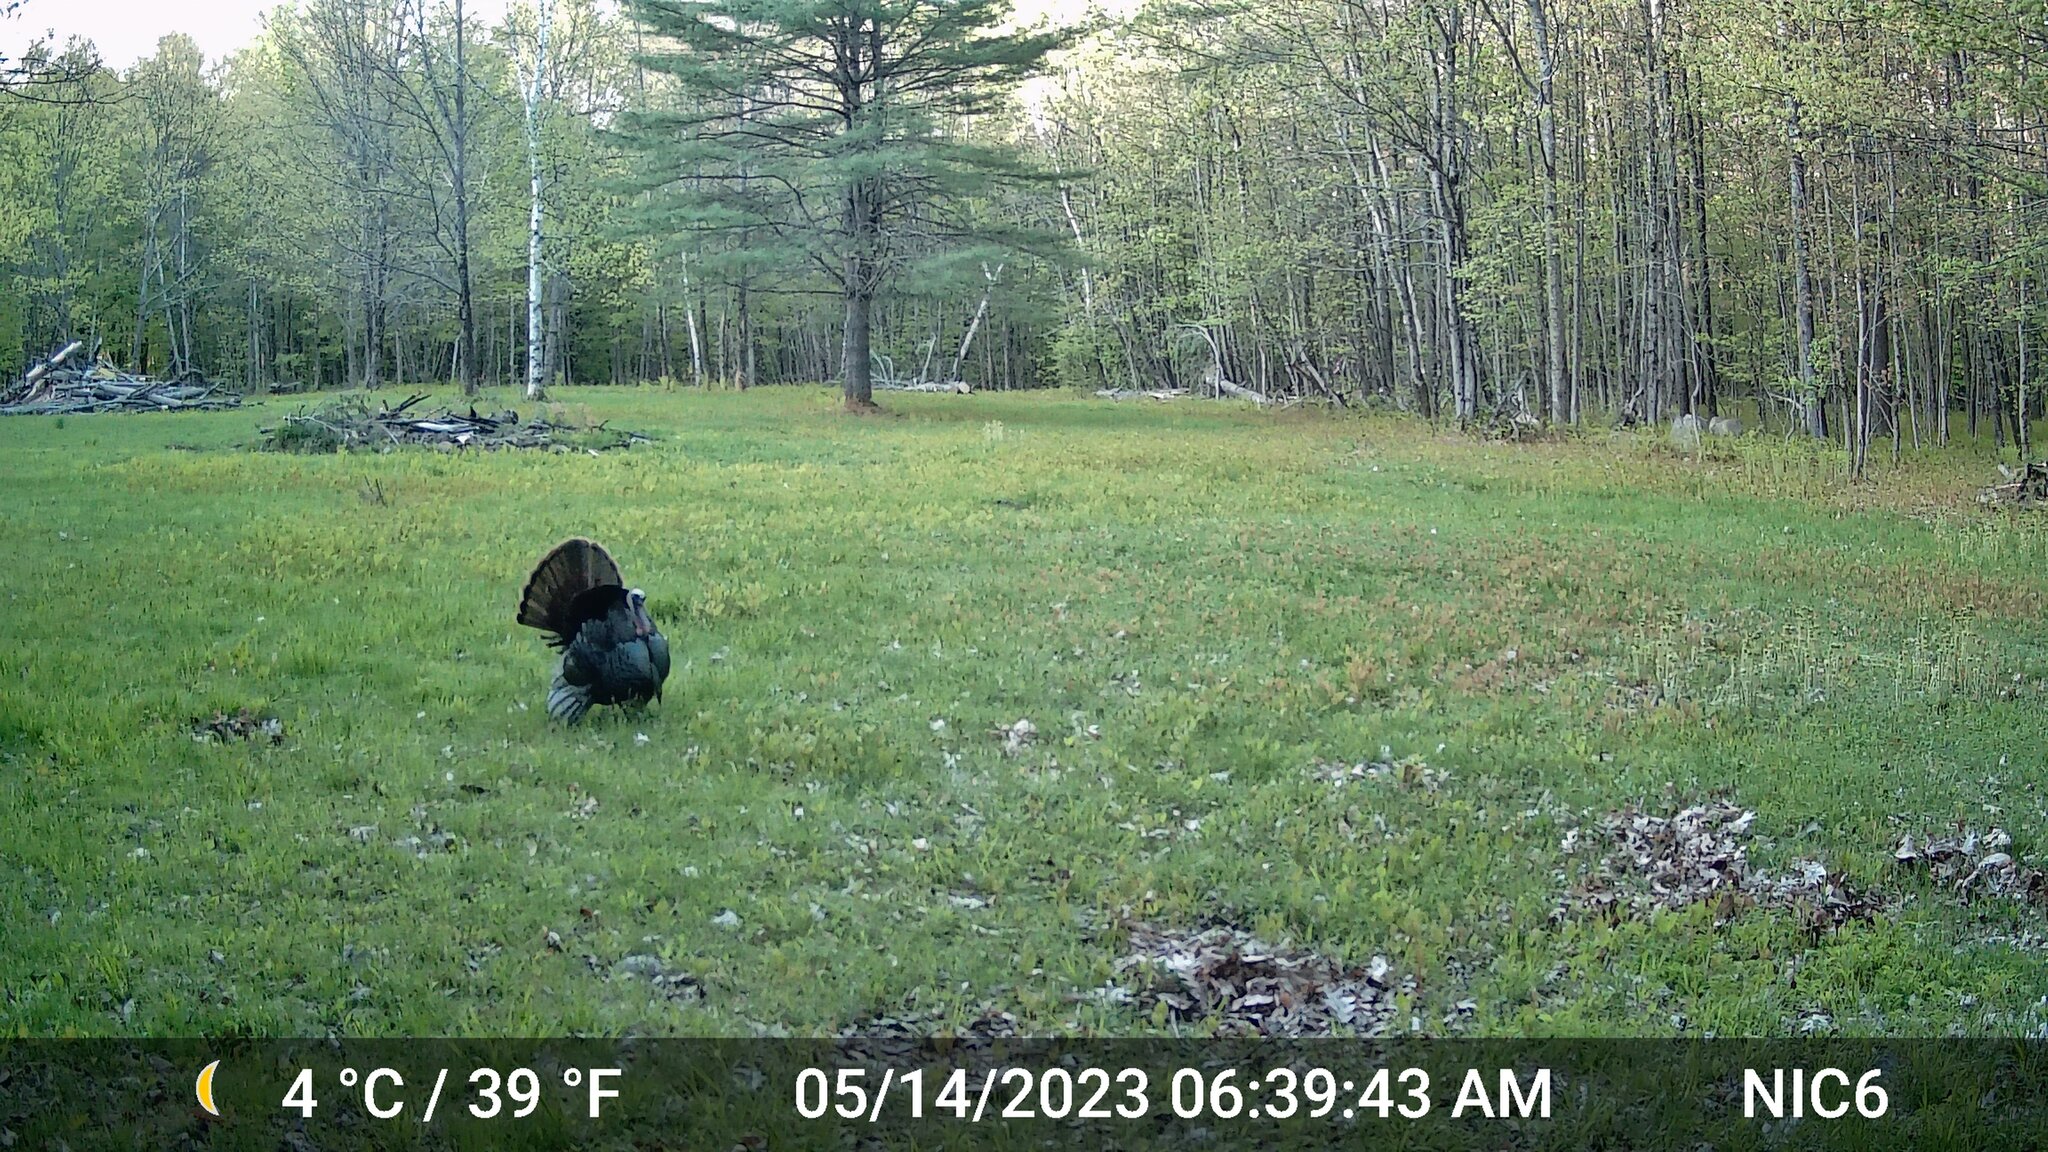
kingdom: Animalia
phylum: Chordata
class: Aves
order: Galliformes
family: Phasianidae
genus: Meleagris
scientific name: Meleagris gallopavo
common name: Wild turkey
